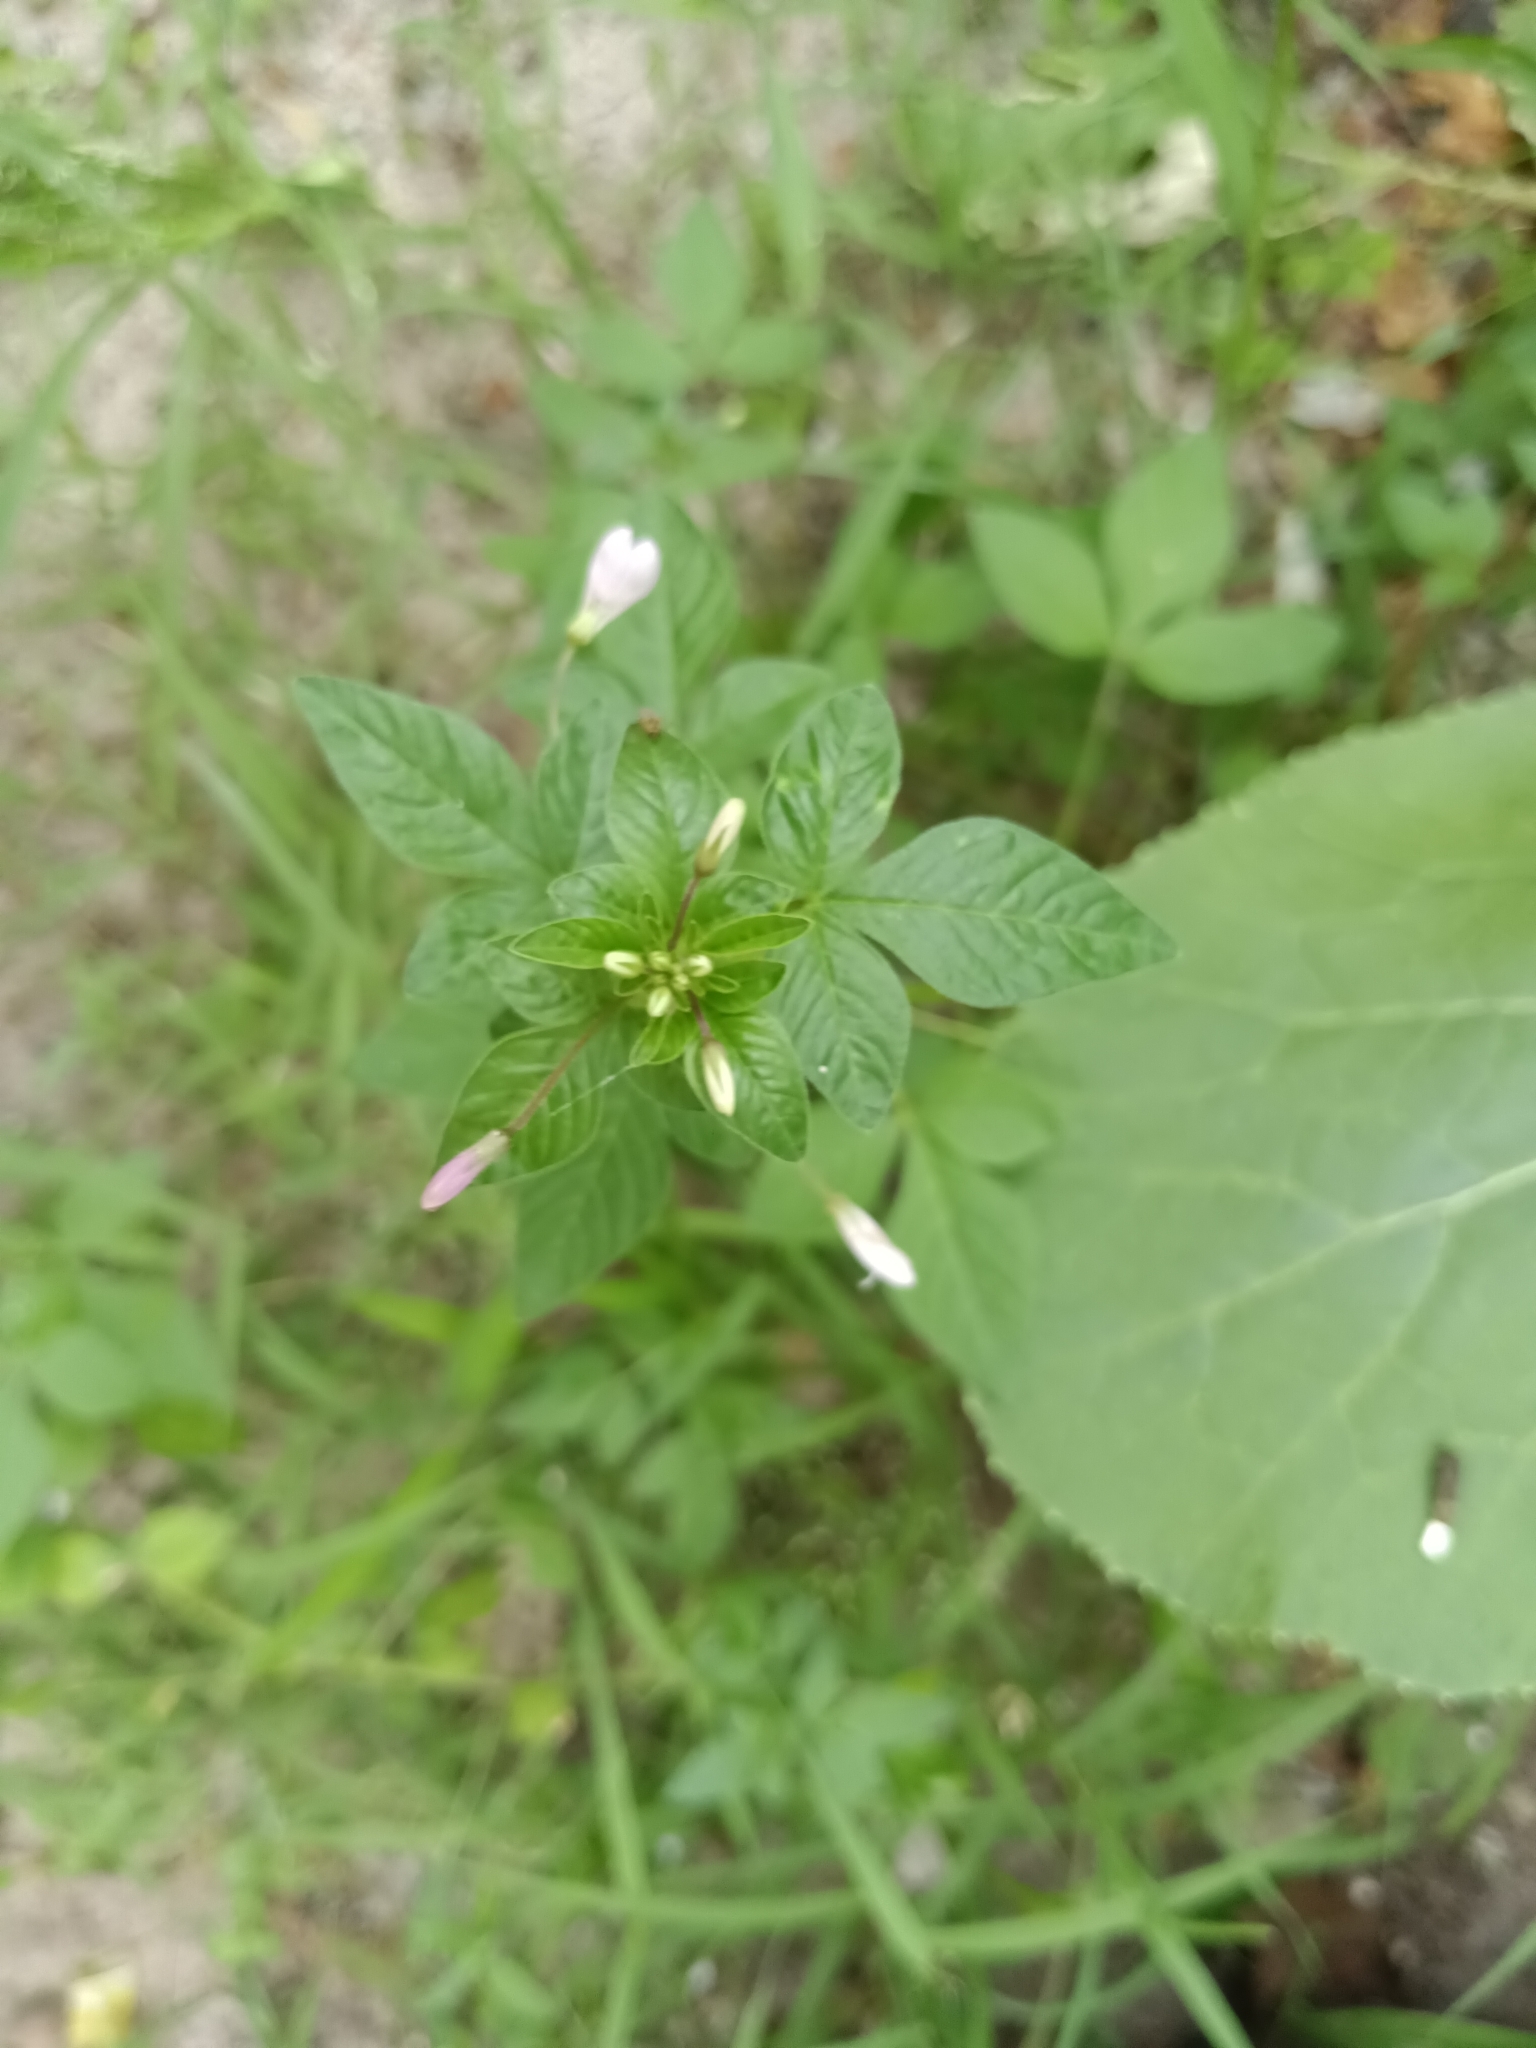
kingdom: Plantae
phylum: Tracheophyta
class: Magnoliopsida
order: Brassicales
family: Cleomaceae
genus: Sieruela
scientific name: Sieruela rutidosperma
